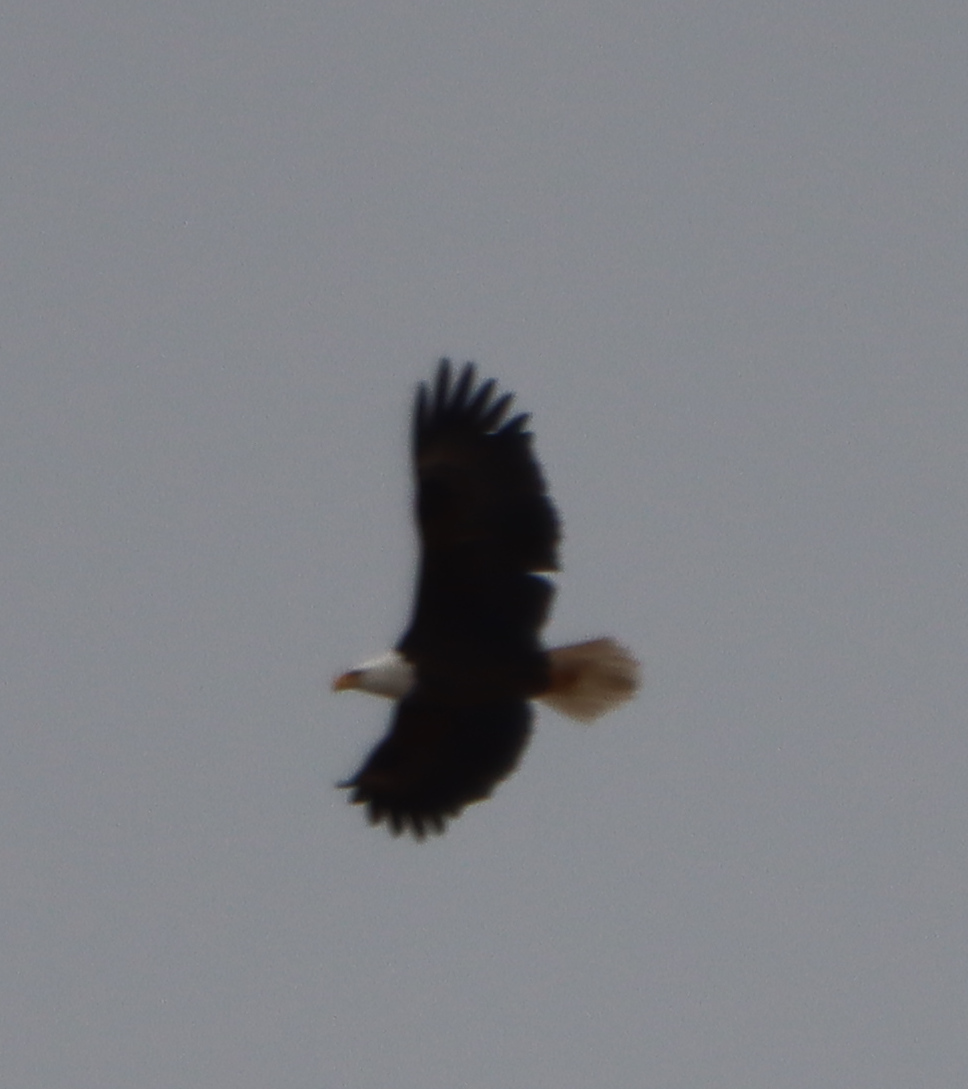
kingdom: Animalia
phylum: Chordata
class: Aves
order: Accipitriformes
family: Accipitridae
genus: Haliaeetus
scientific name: Haliaeetus leucocephalus
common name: Bald eagle
